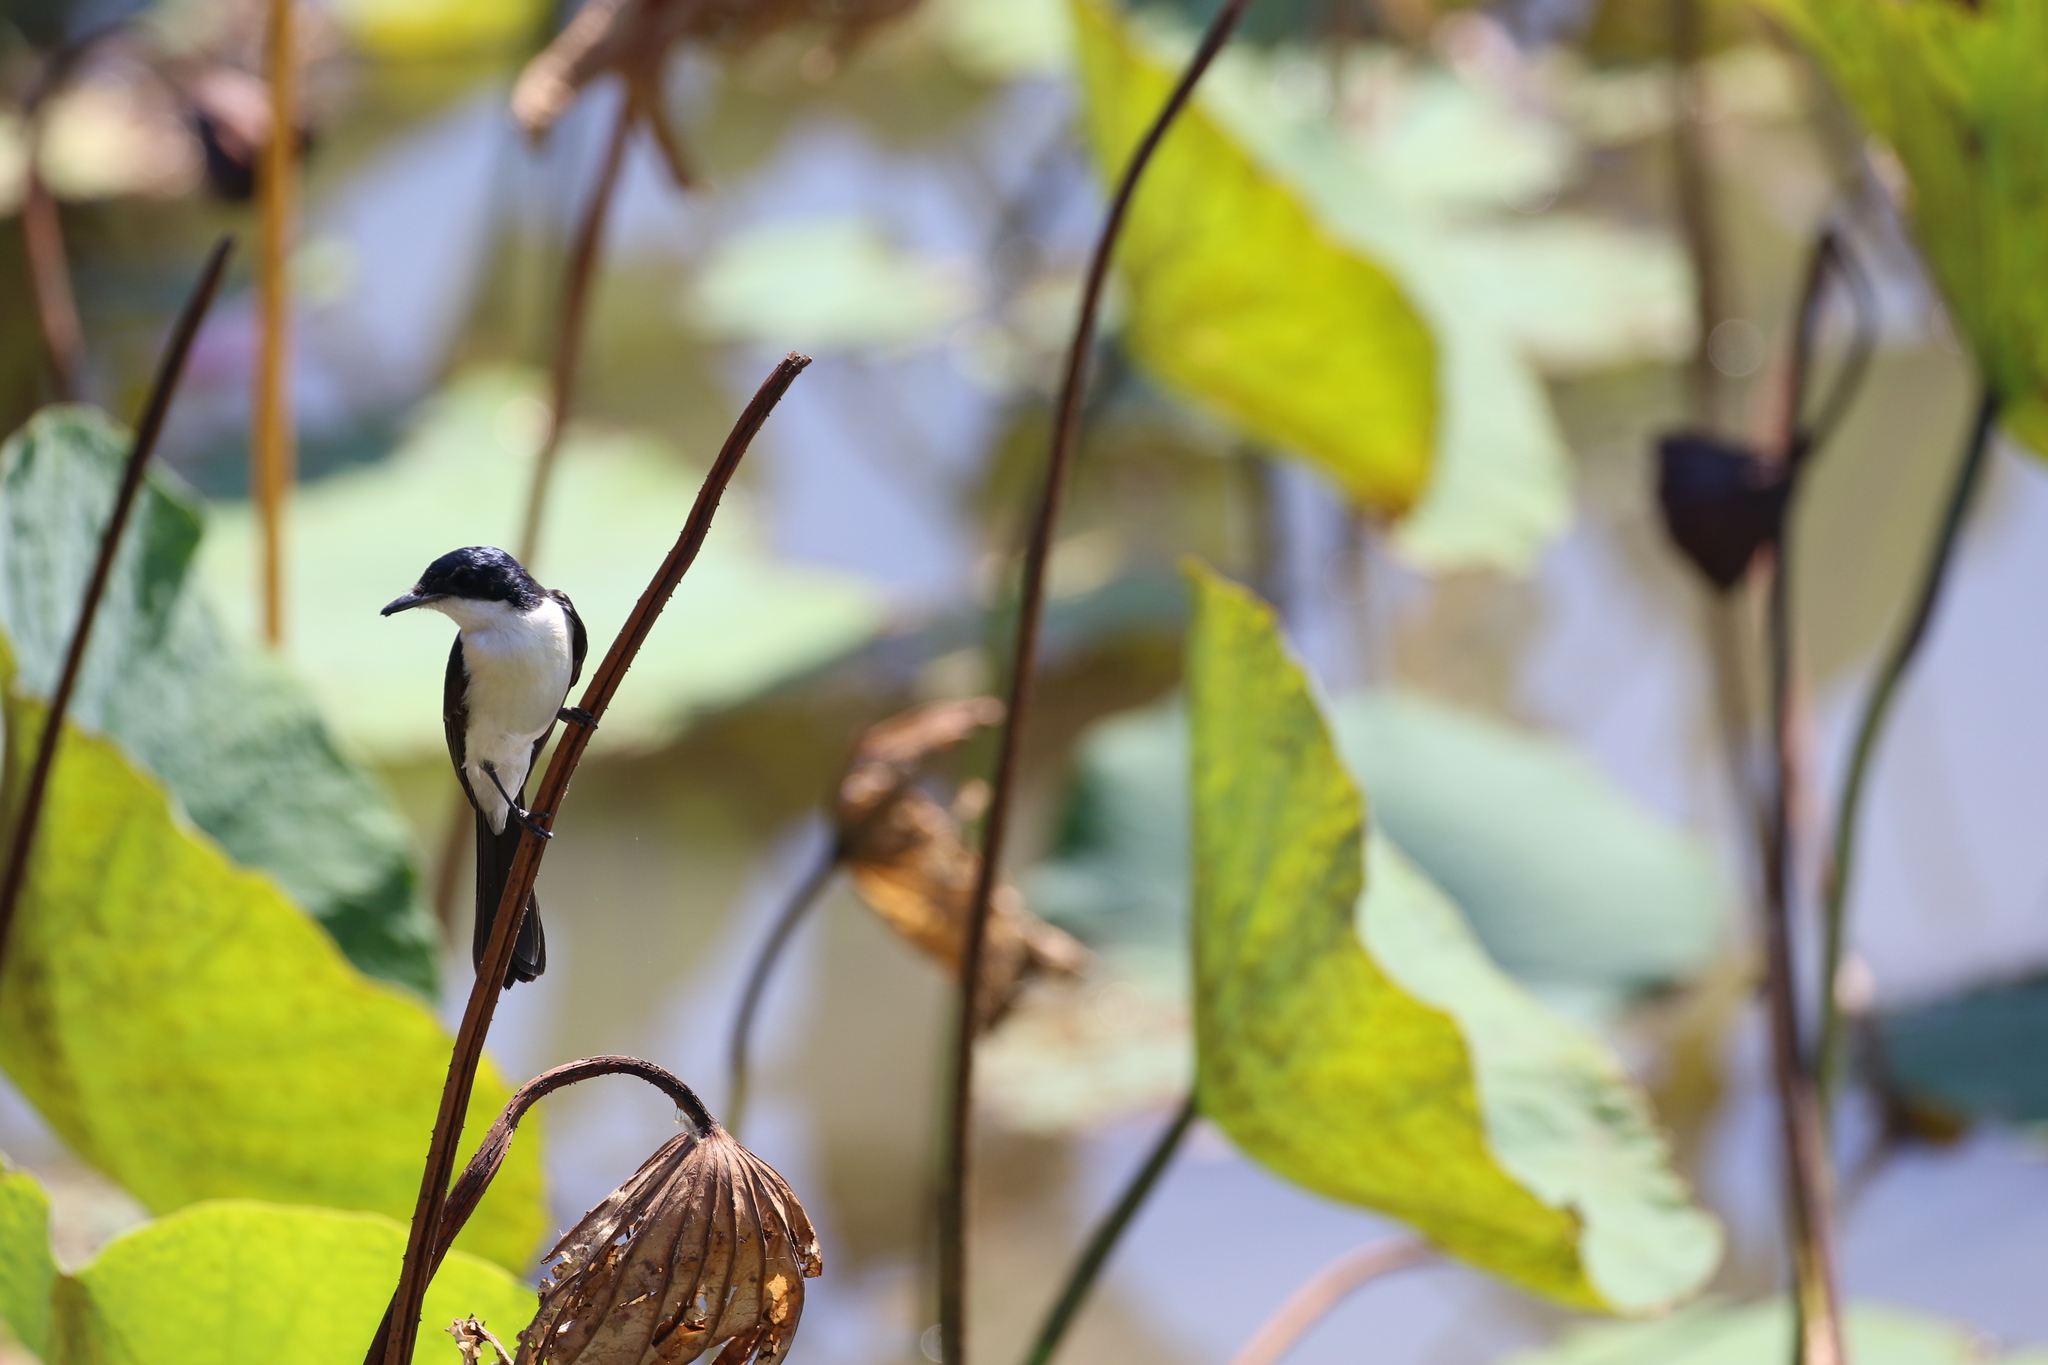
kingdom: Animalia
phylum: Chordata
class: Aves
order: Passeriformes
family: Monarchidae
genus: Myiagra
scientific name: Myiagra nana
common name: Paperbark flycatcher
